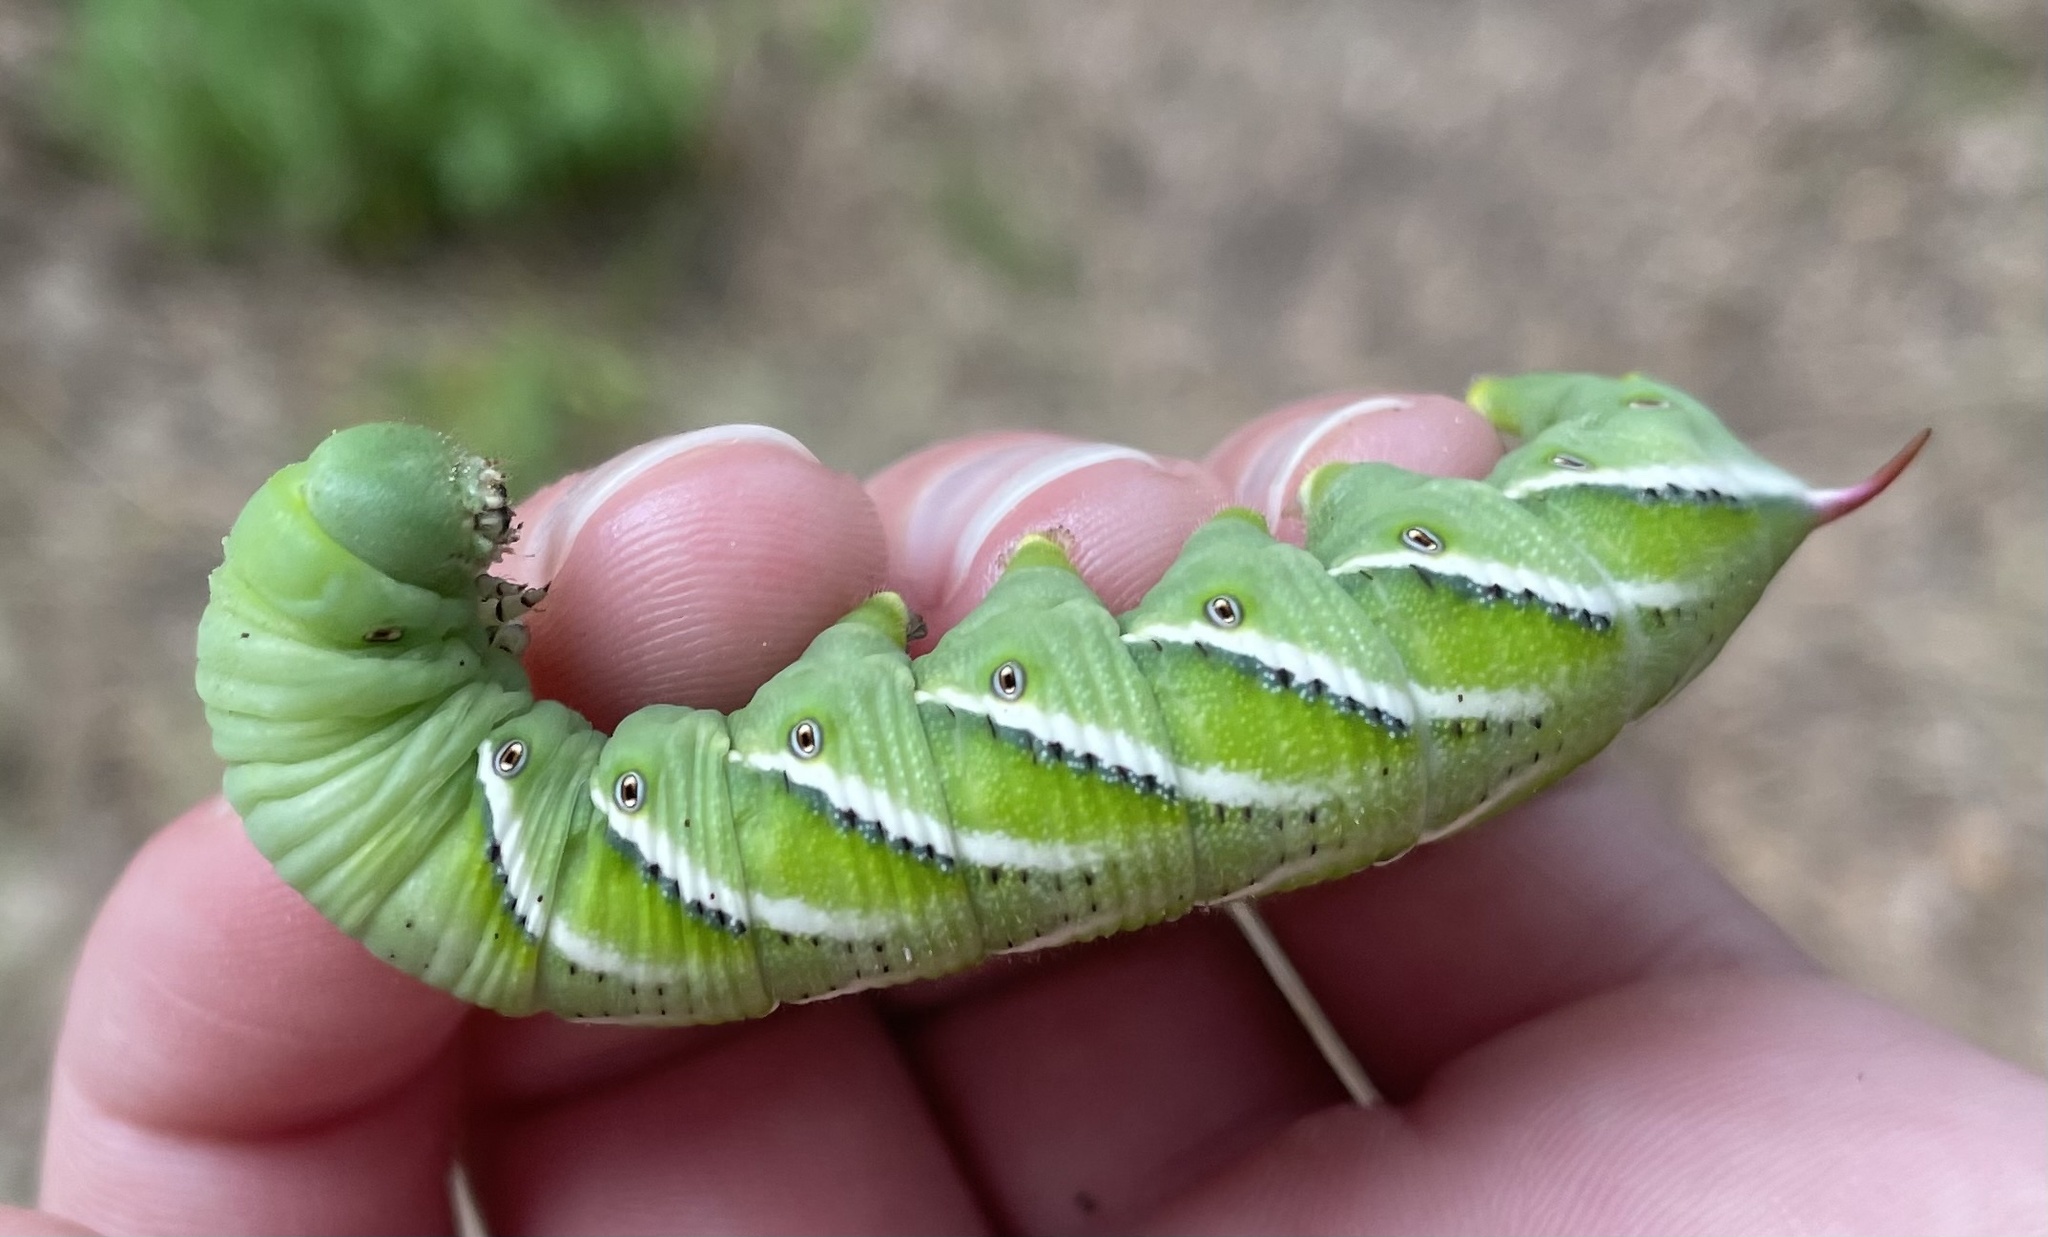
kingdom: Animalia
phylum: Arthropoda
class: Insecta
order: Lepidoptera
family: Sphingidae
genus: Manduca
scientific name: Manduca sexta
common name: Carolina sphinx
